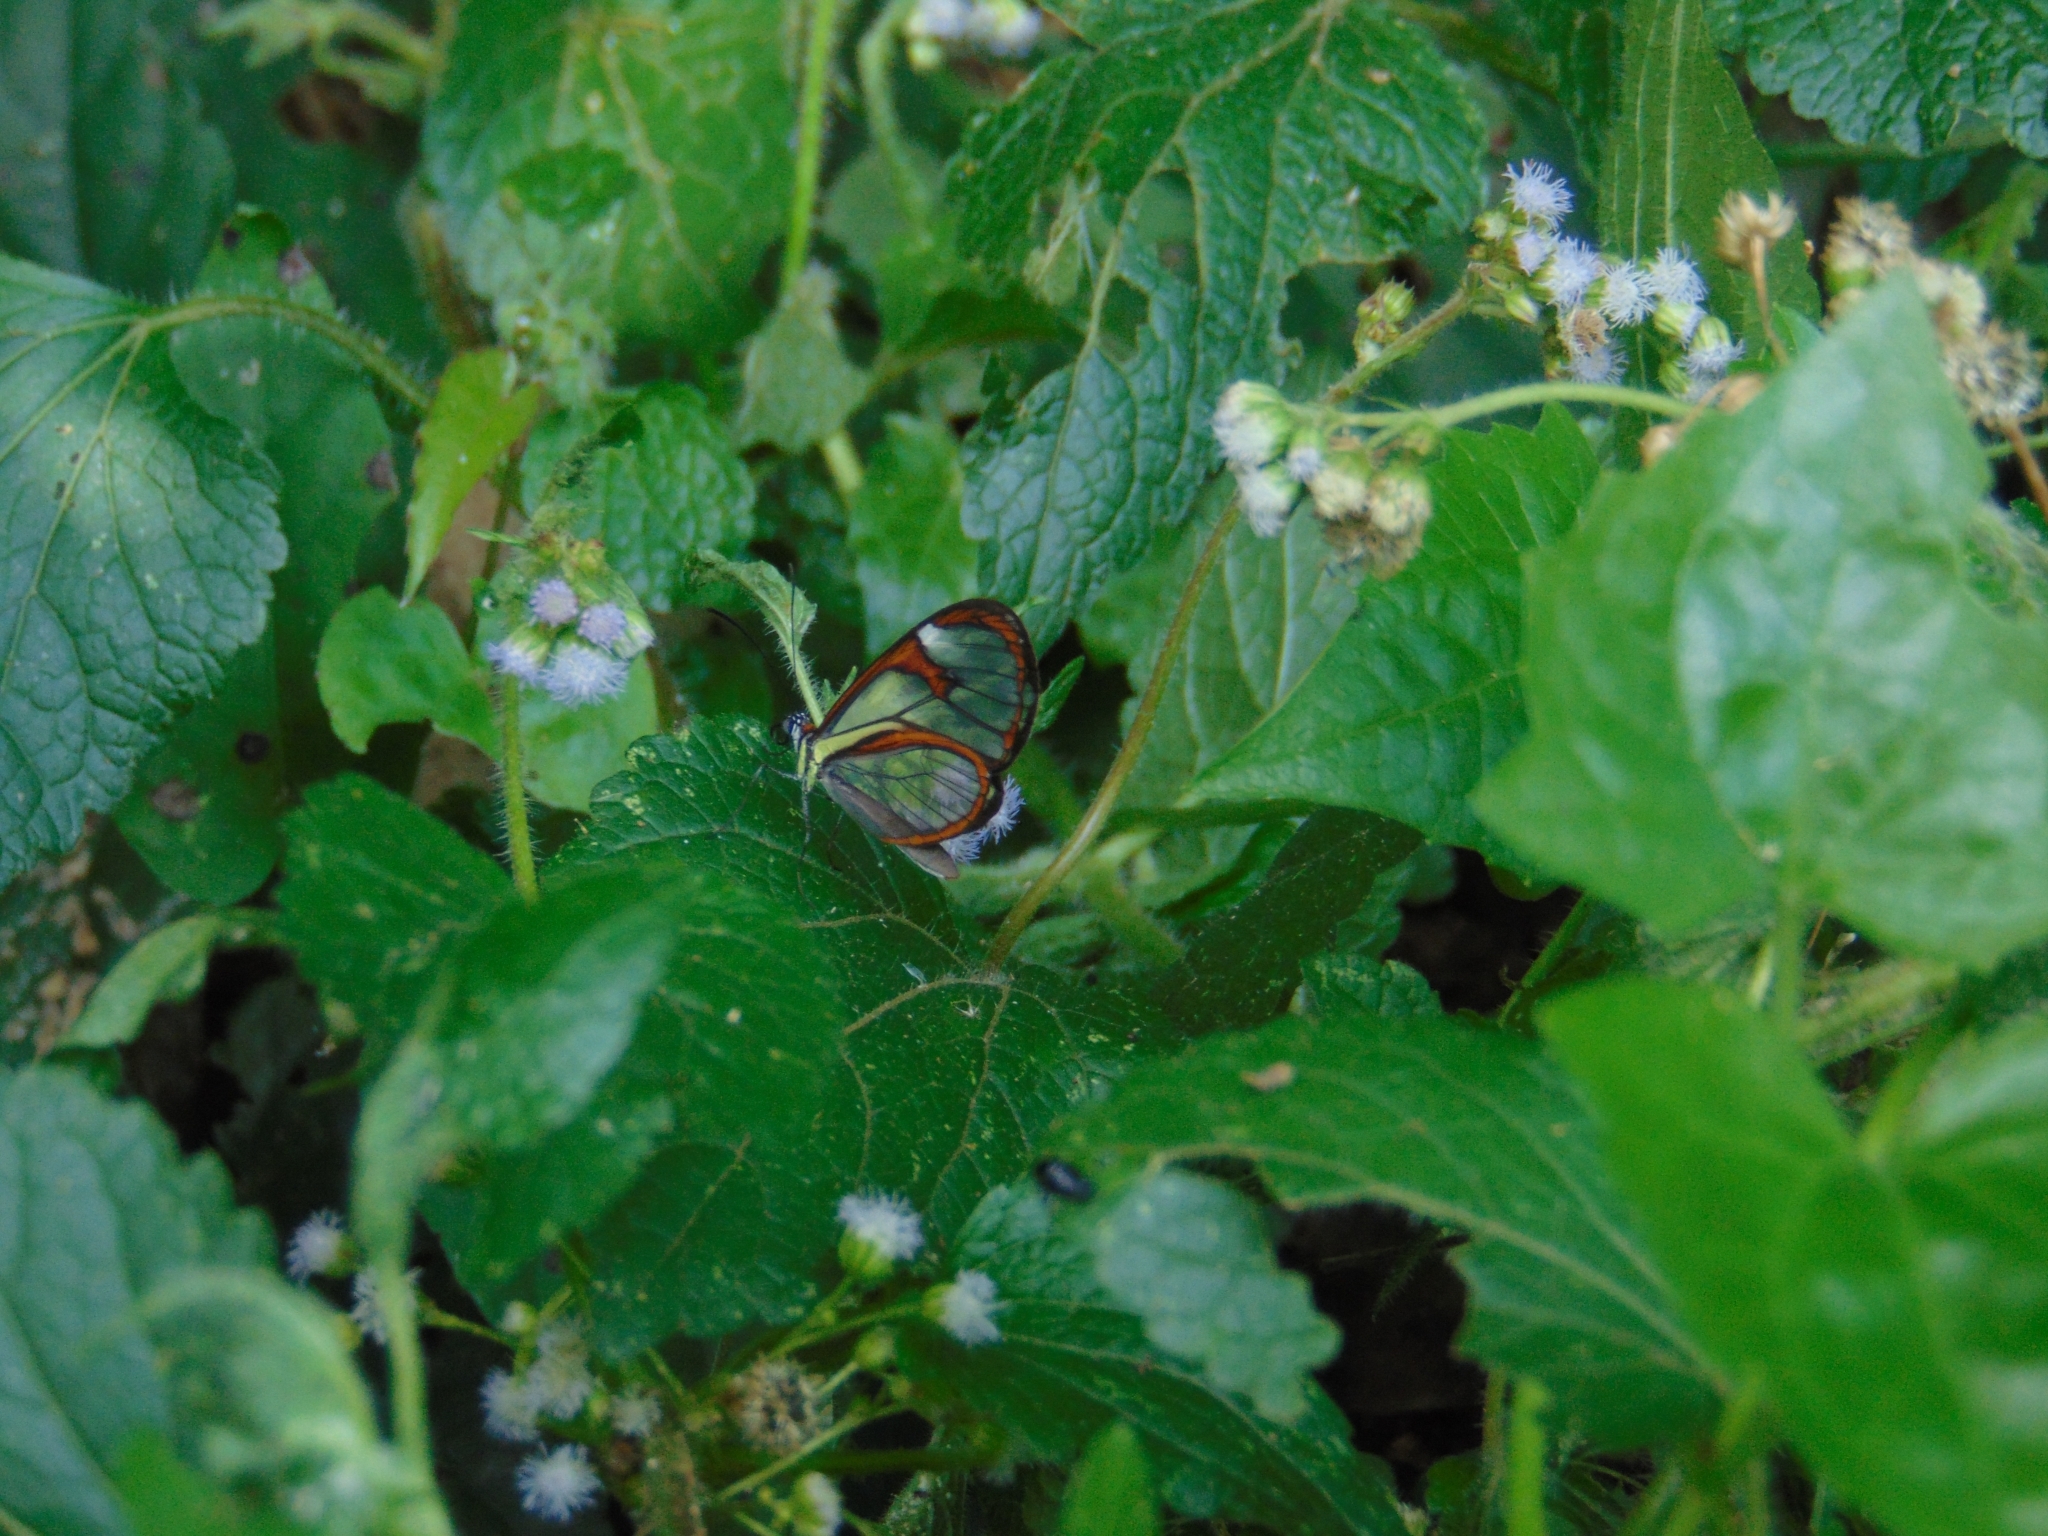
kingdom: Animalia
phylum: Arthropoda
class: Insecta
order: Lepidoptera
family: Nymphalidae
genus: Ithomia
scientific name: Ithomia agnosia
